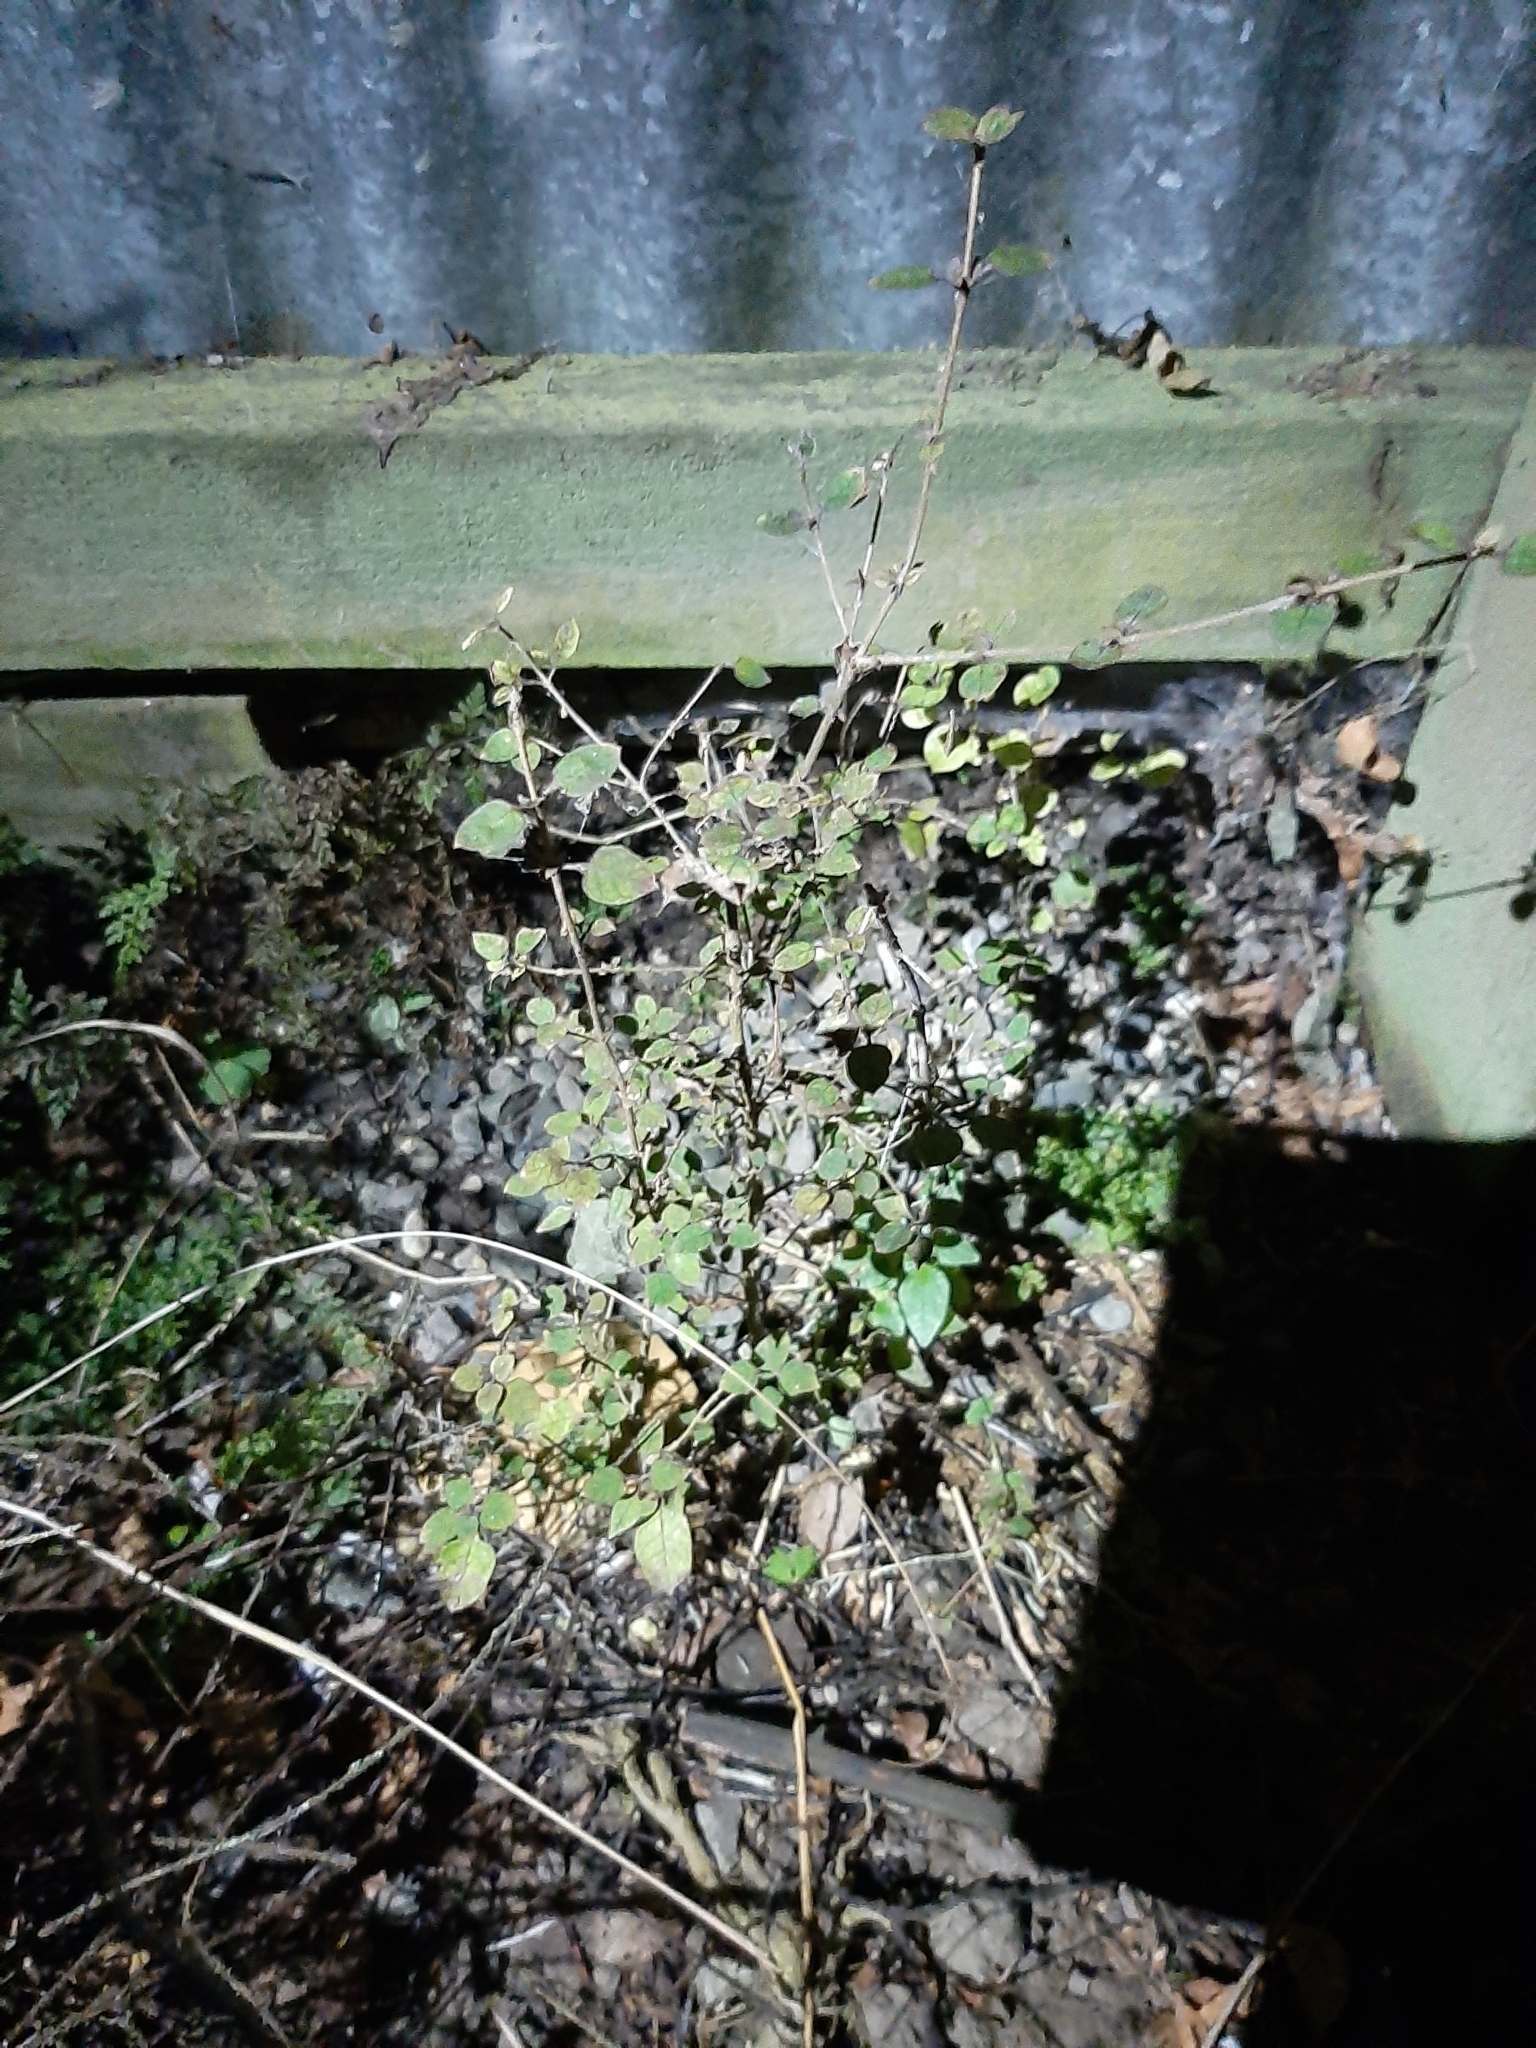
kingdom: Plantae
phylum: Tracheophyta
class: Magnoliopsida
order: Gentianales
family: Rubiaceae
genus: Coprosma
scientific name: Coprosma areolata
